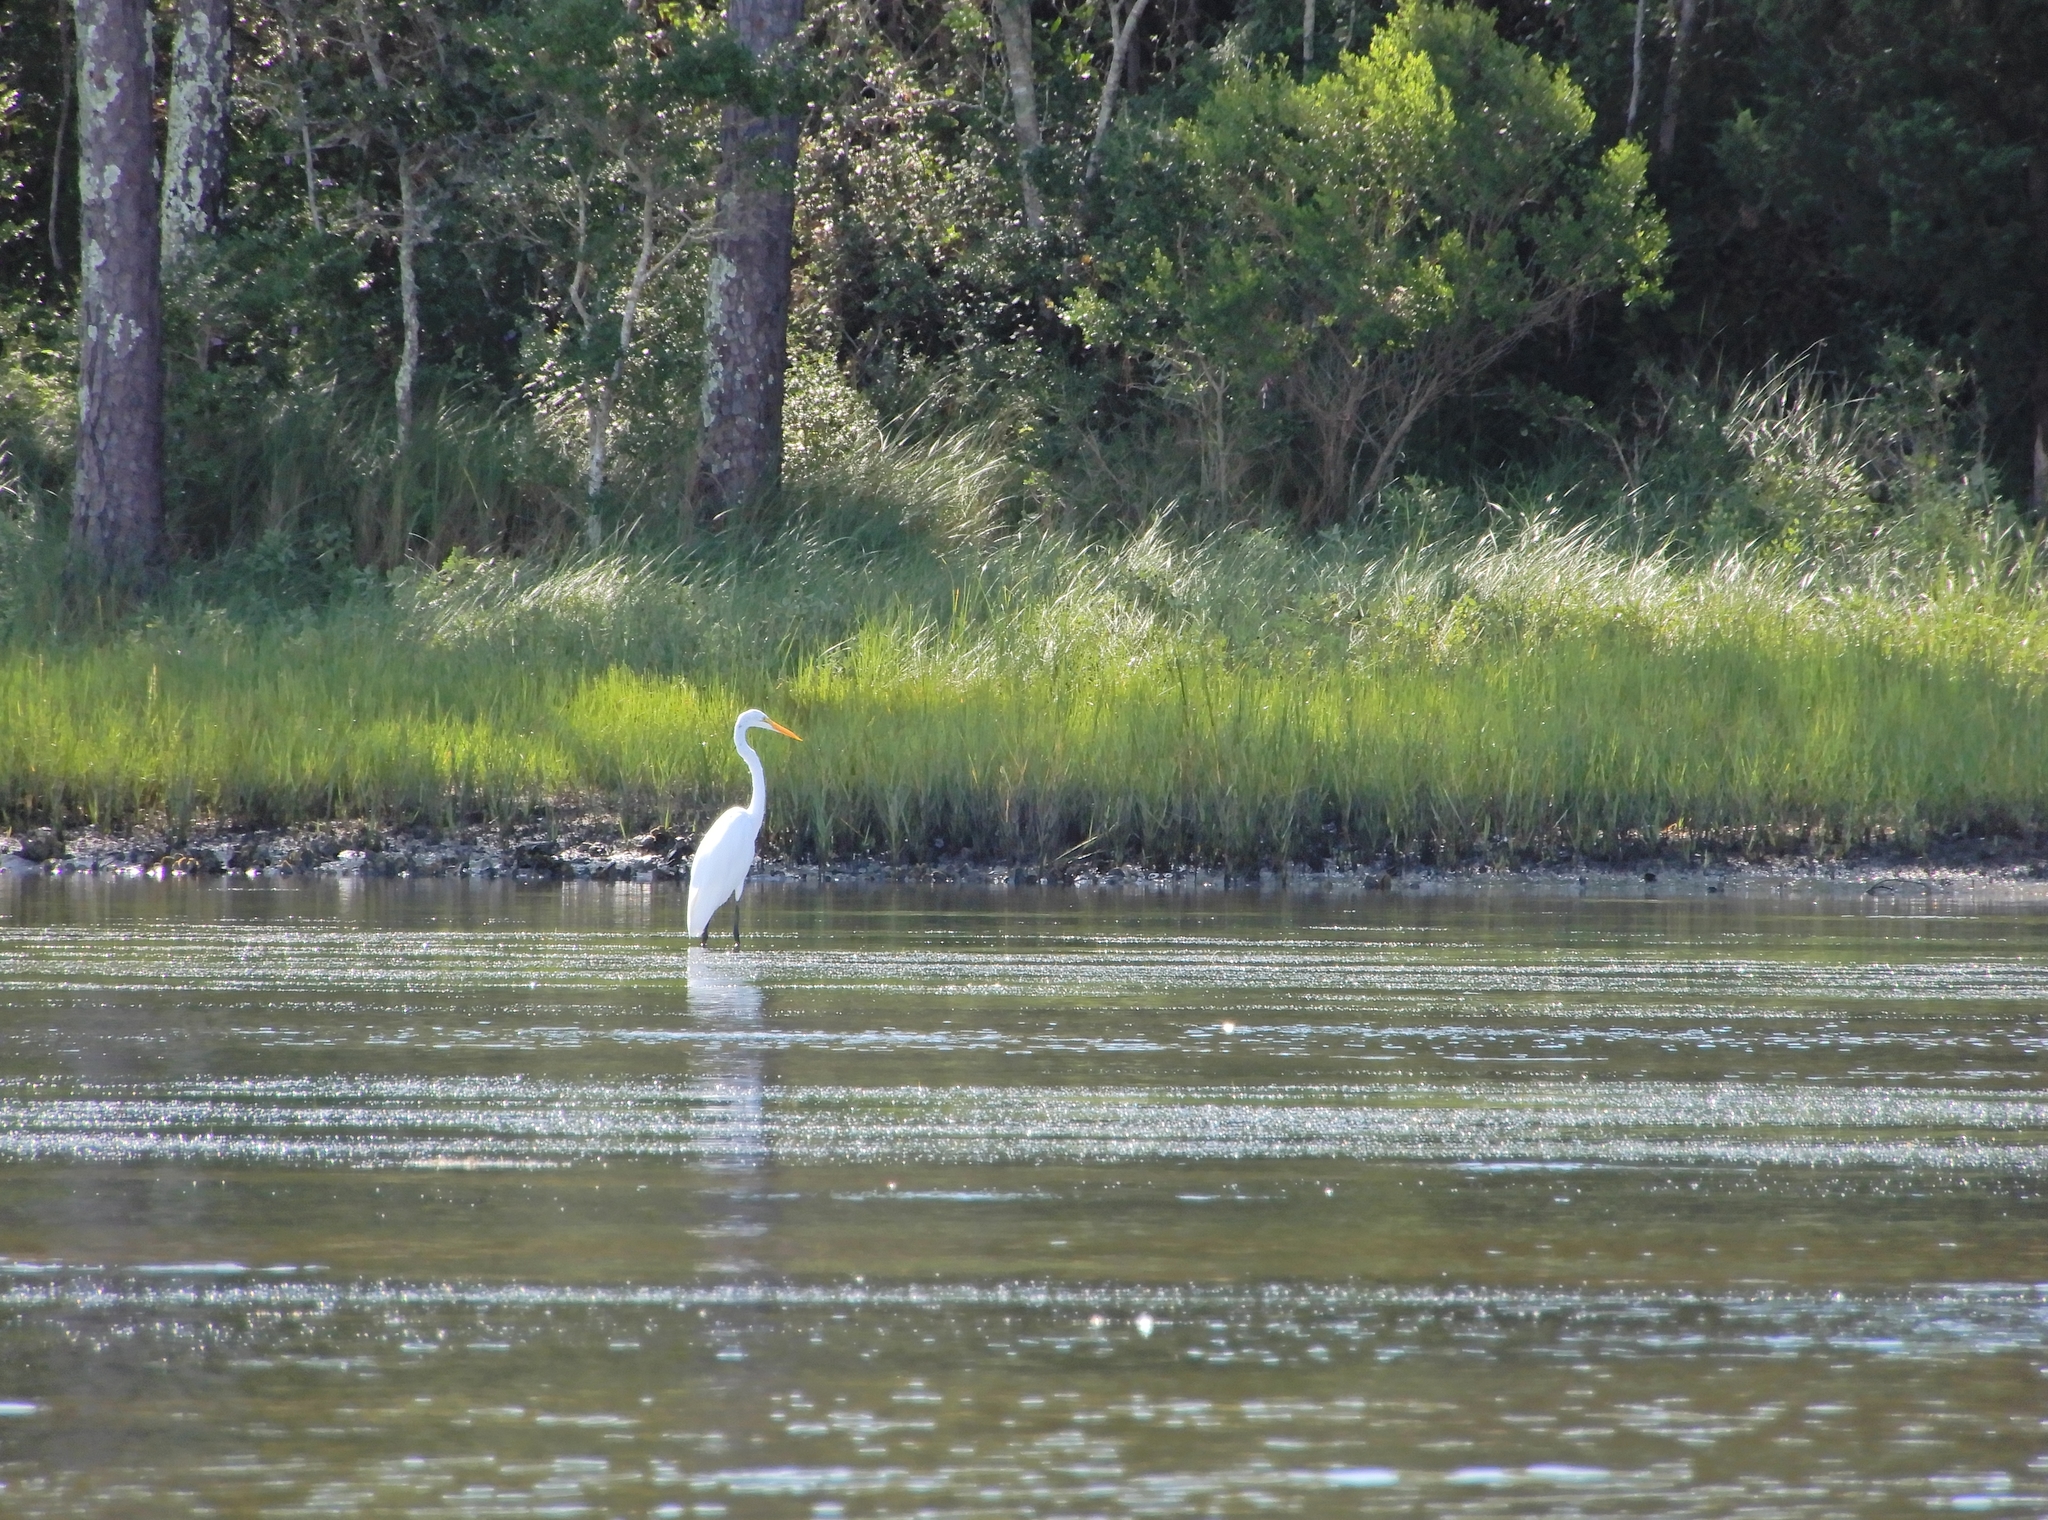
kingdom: Animalia
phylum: Chordata
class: Aves
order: Pelecaniformes
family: Ardeidae
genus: Ardea
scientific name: Ardea alba
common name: Great egret
